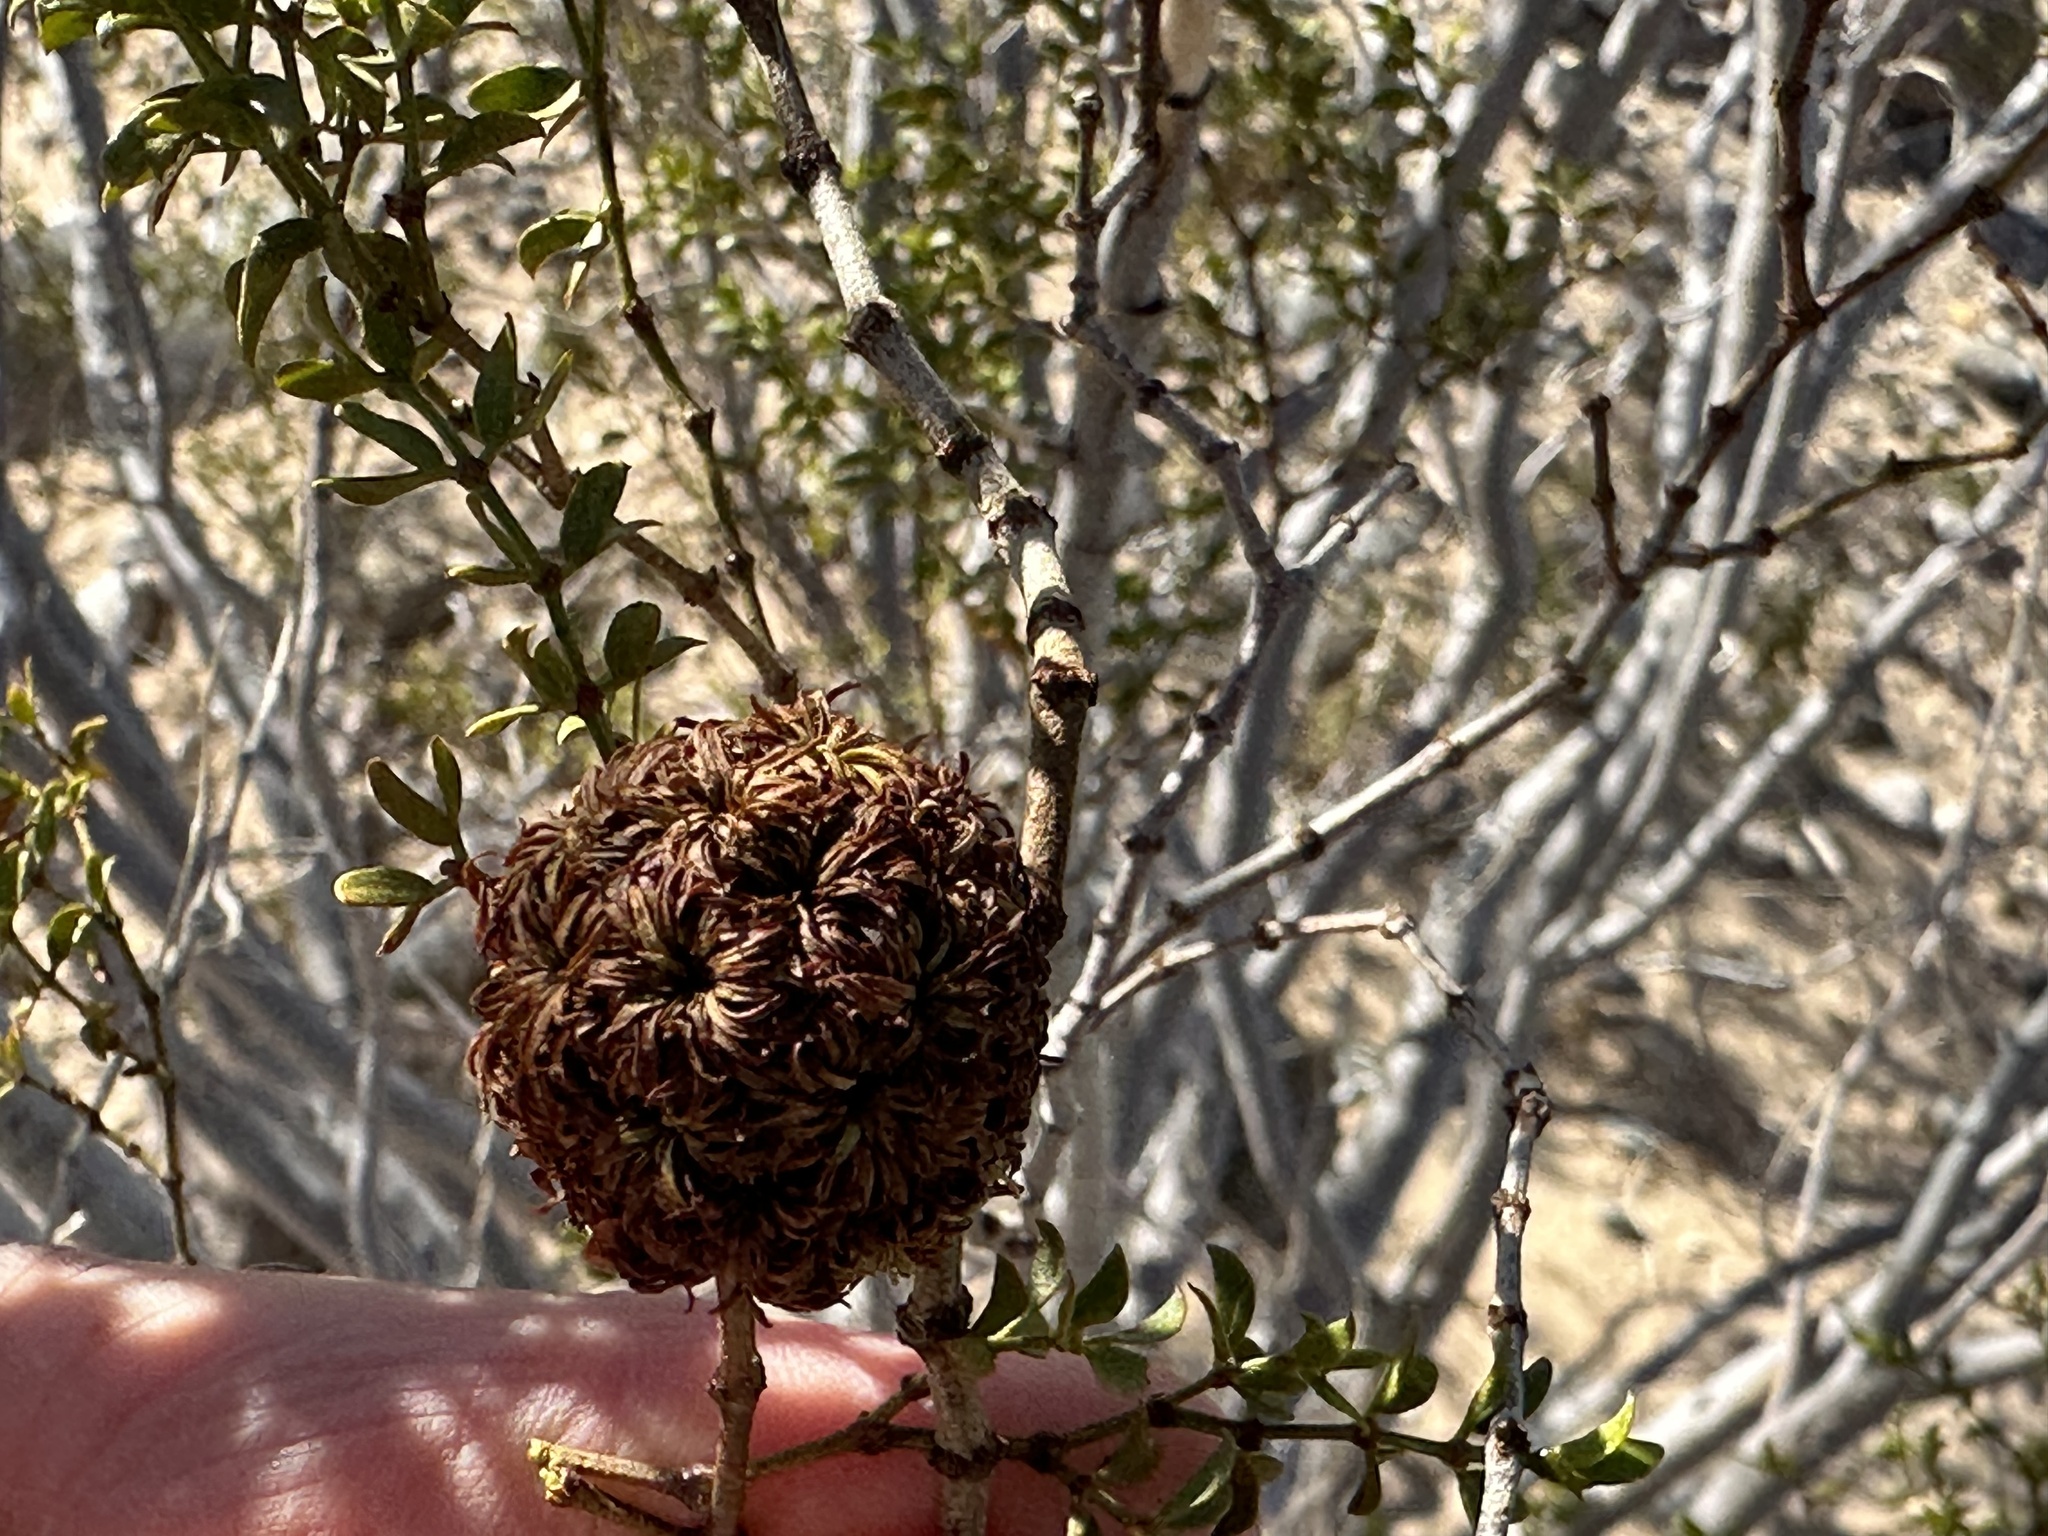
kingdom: Animalia
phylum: Arthropoda
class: Insecta
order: Diptera
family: Cecidomyiidae
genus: Asphondylia
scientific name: Asphondylia auripila
